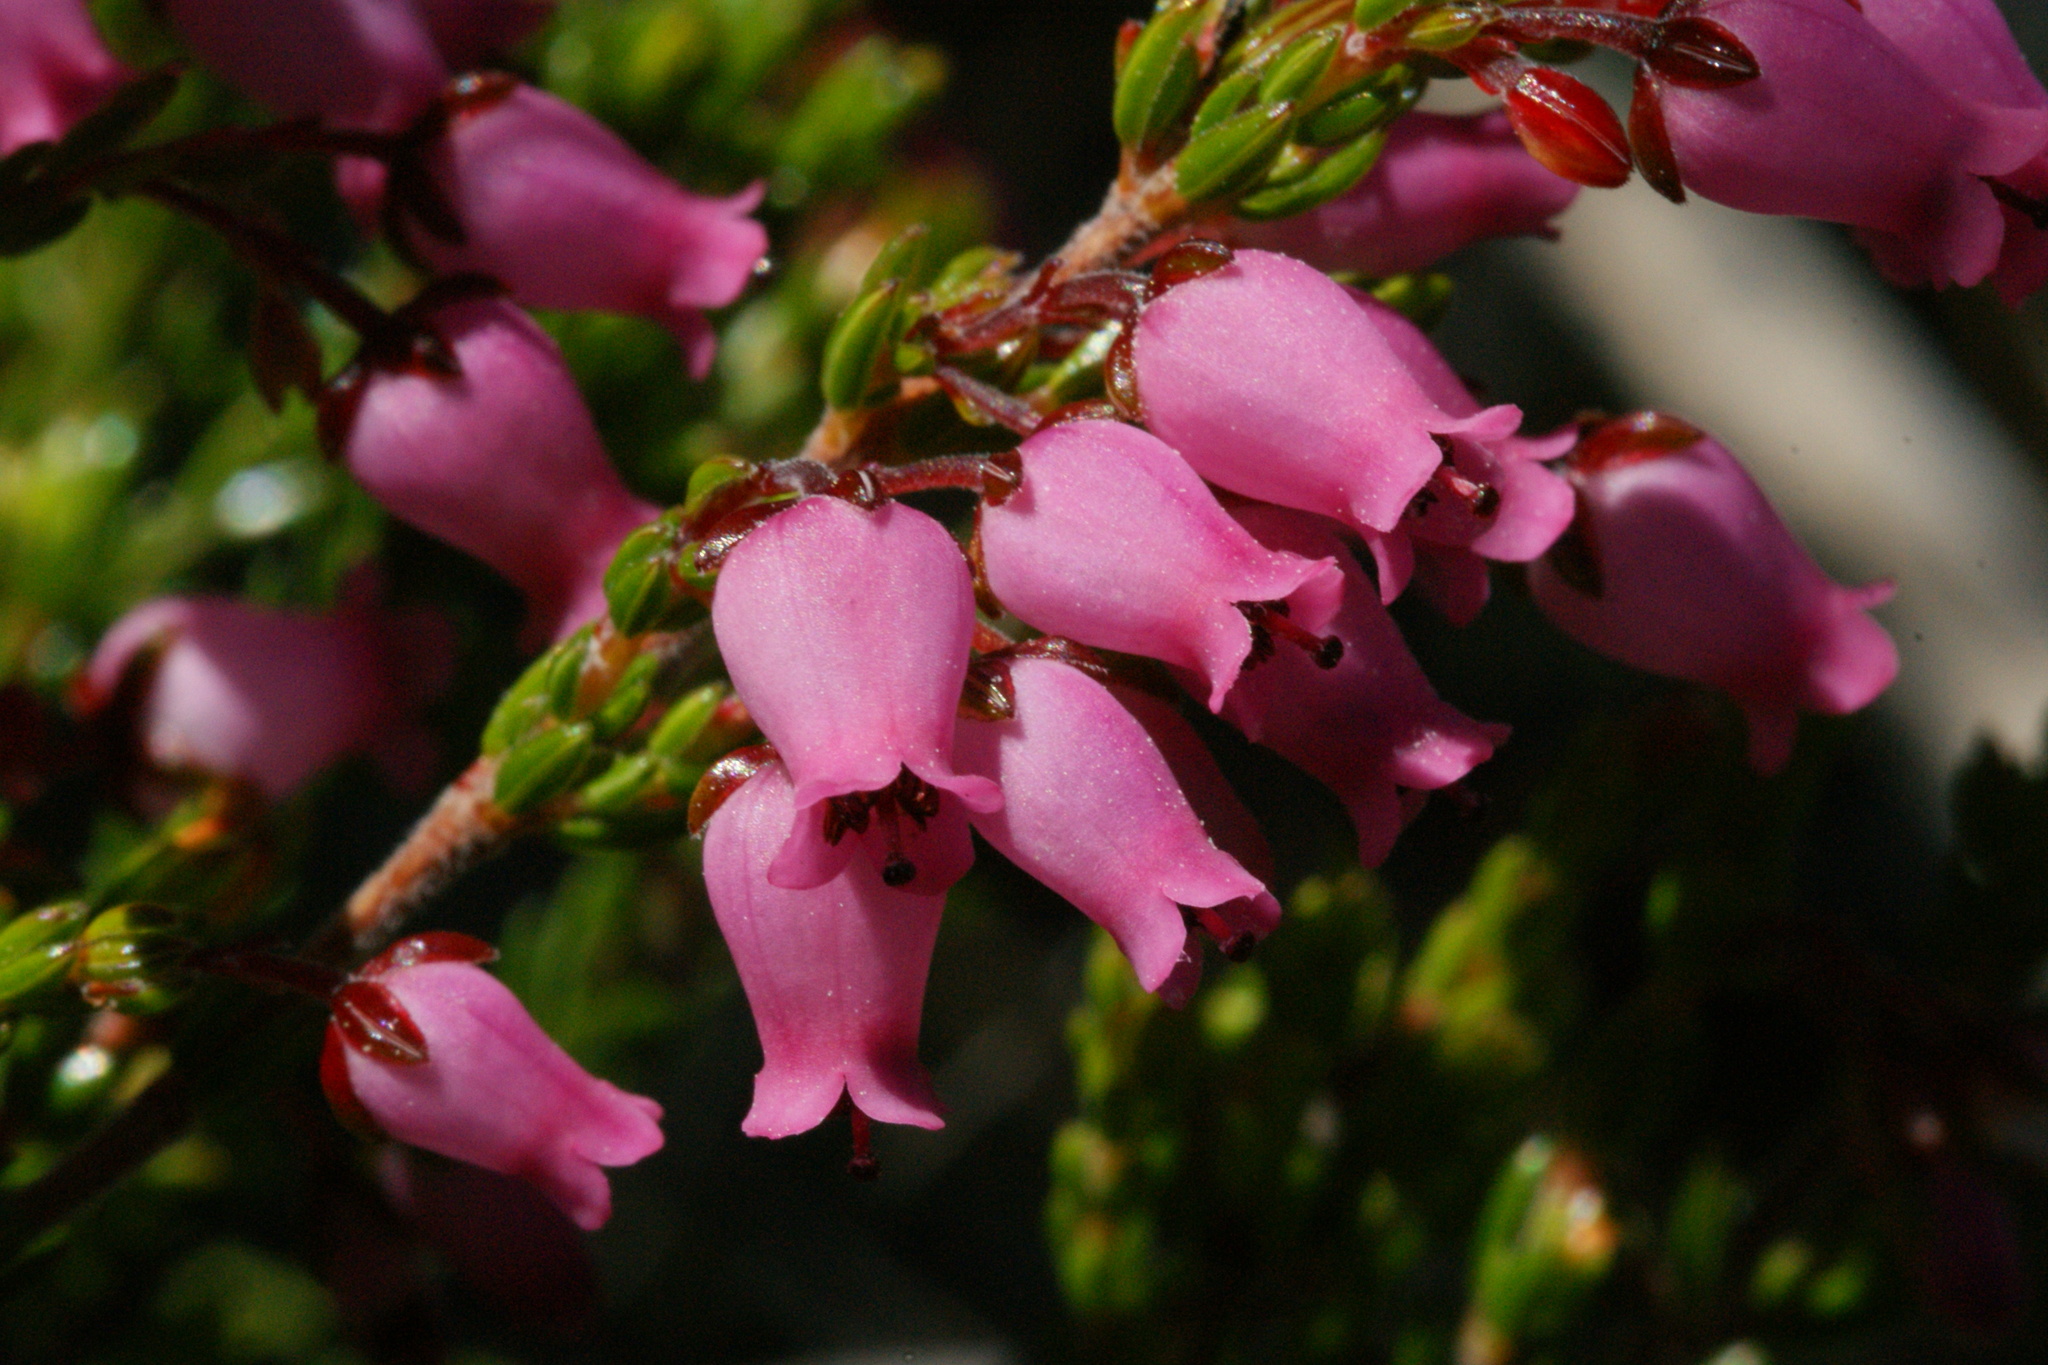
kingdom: Plantae
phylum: Tracheophyta
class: Magnoliopsida
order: Ericales
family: Ericaceae
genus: Erica
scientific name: Erica lateralis
